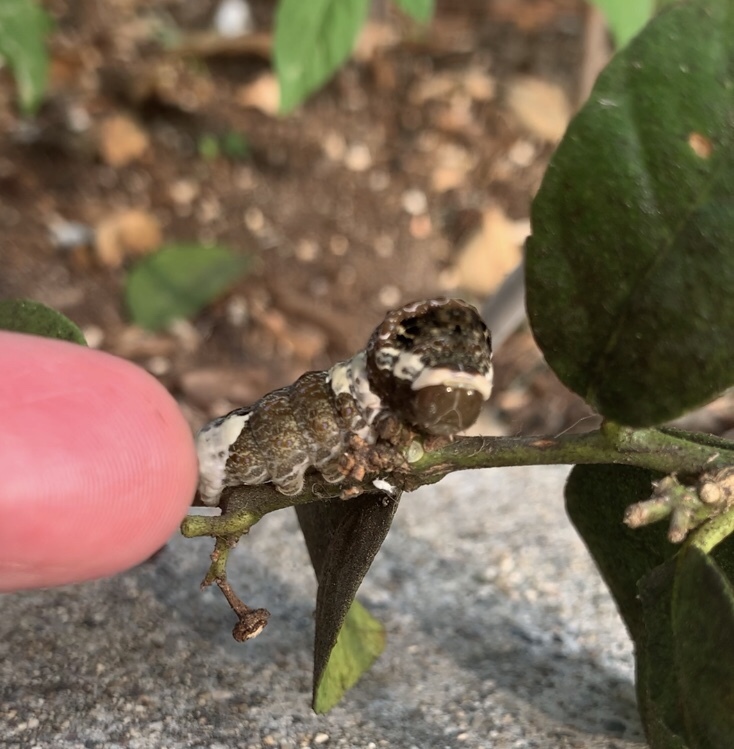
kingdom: Animalia
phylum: Arthropoda
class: Insecta
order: Lepidoptera
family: Papilionidae
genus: Papilio
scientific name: Papilio rumiko
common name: Western giant swallowtail
